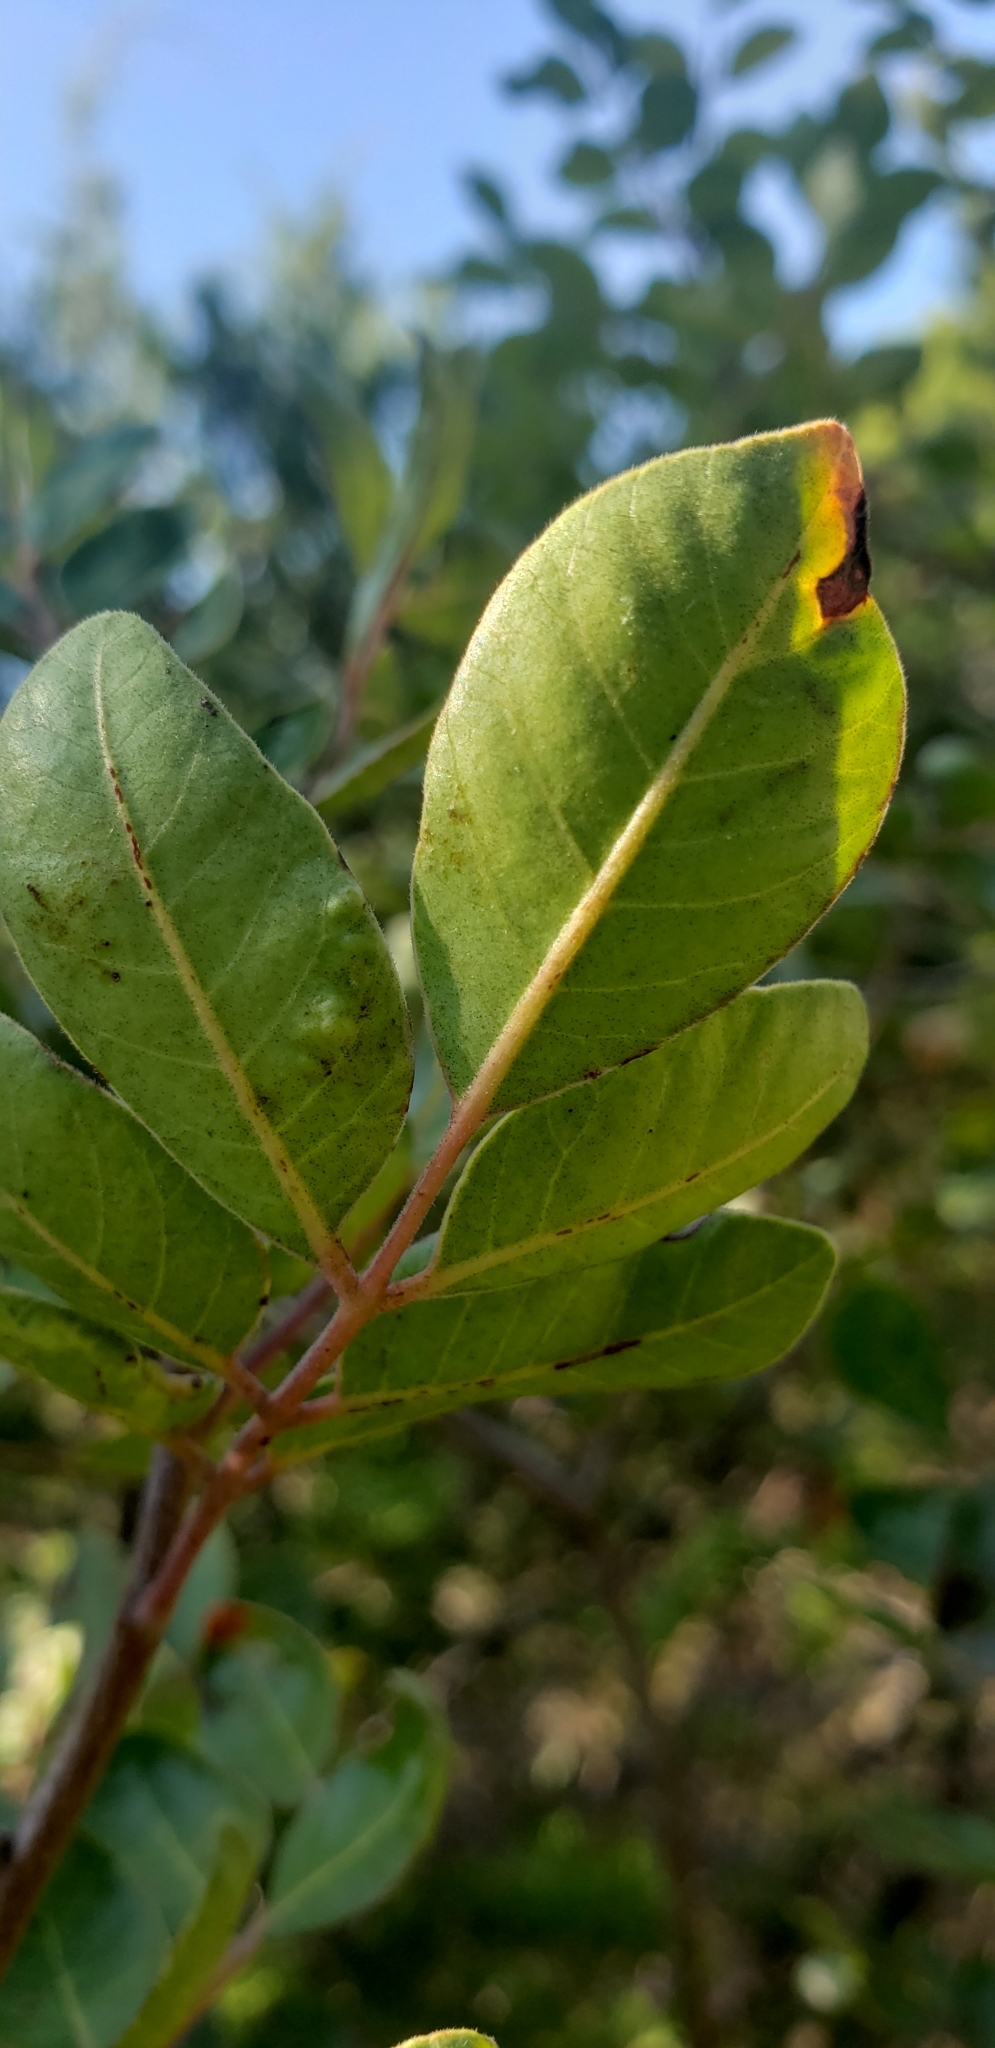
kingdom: Plantae
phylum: Tracheophyta
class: Magnoliopsida
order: Sapindales
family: Anacardiaceae
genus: Rhus
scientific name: Rhus virens
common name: Evergreen sumac
